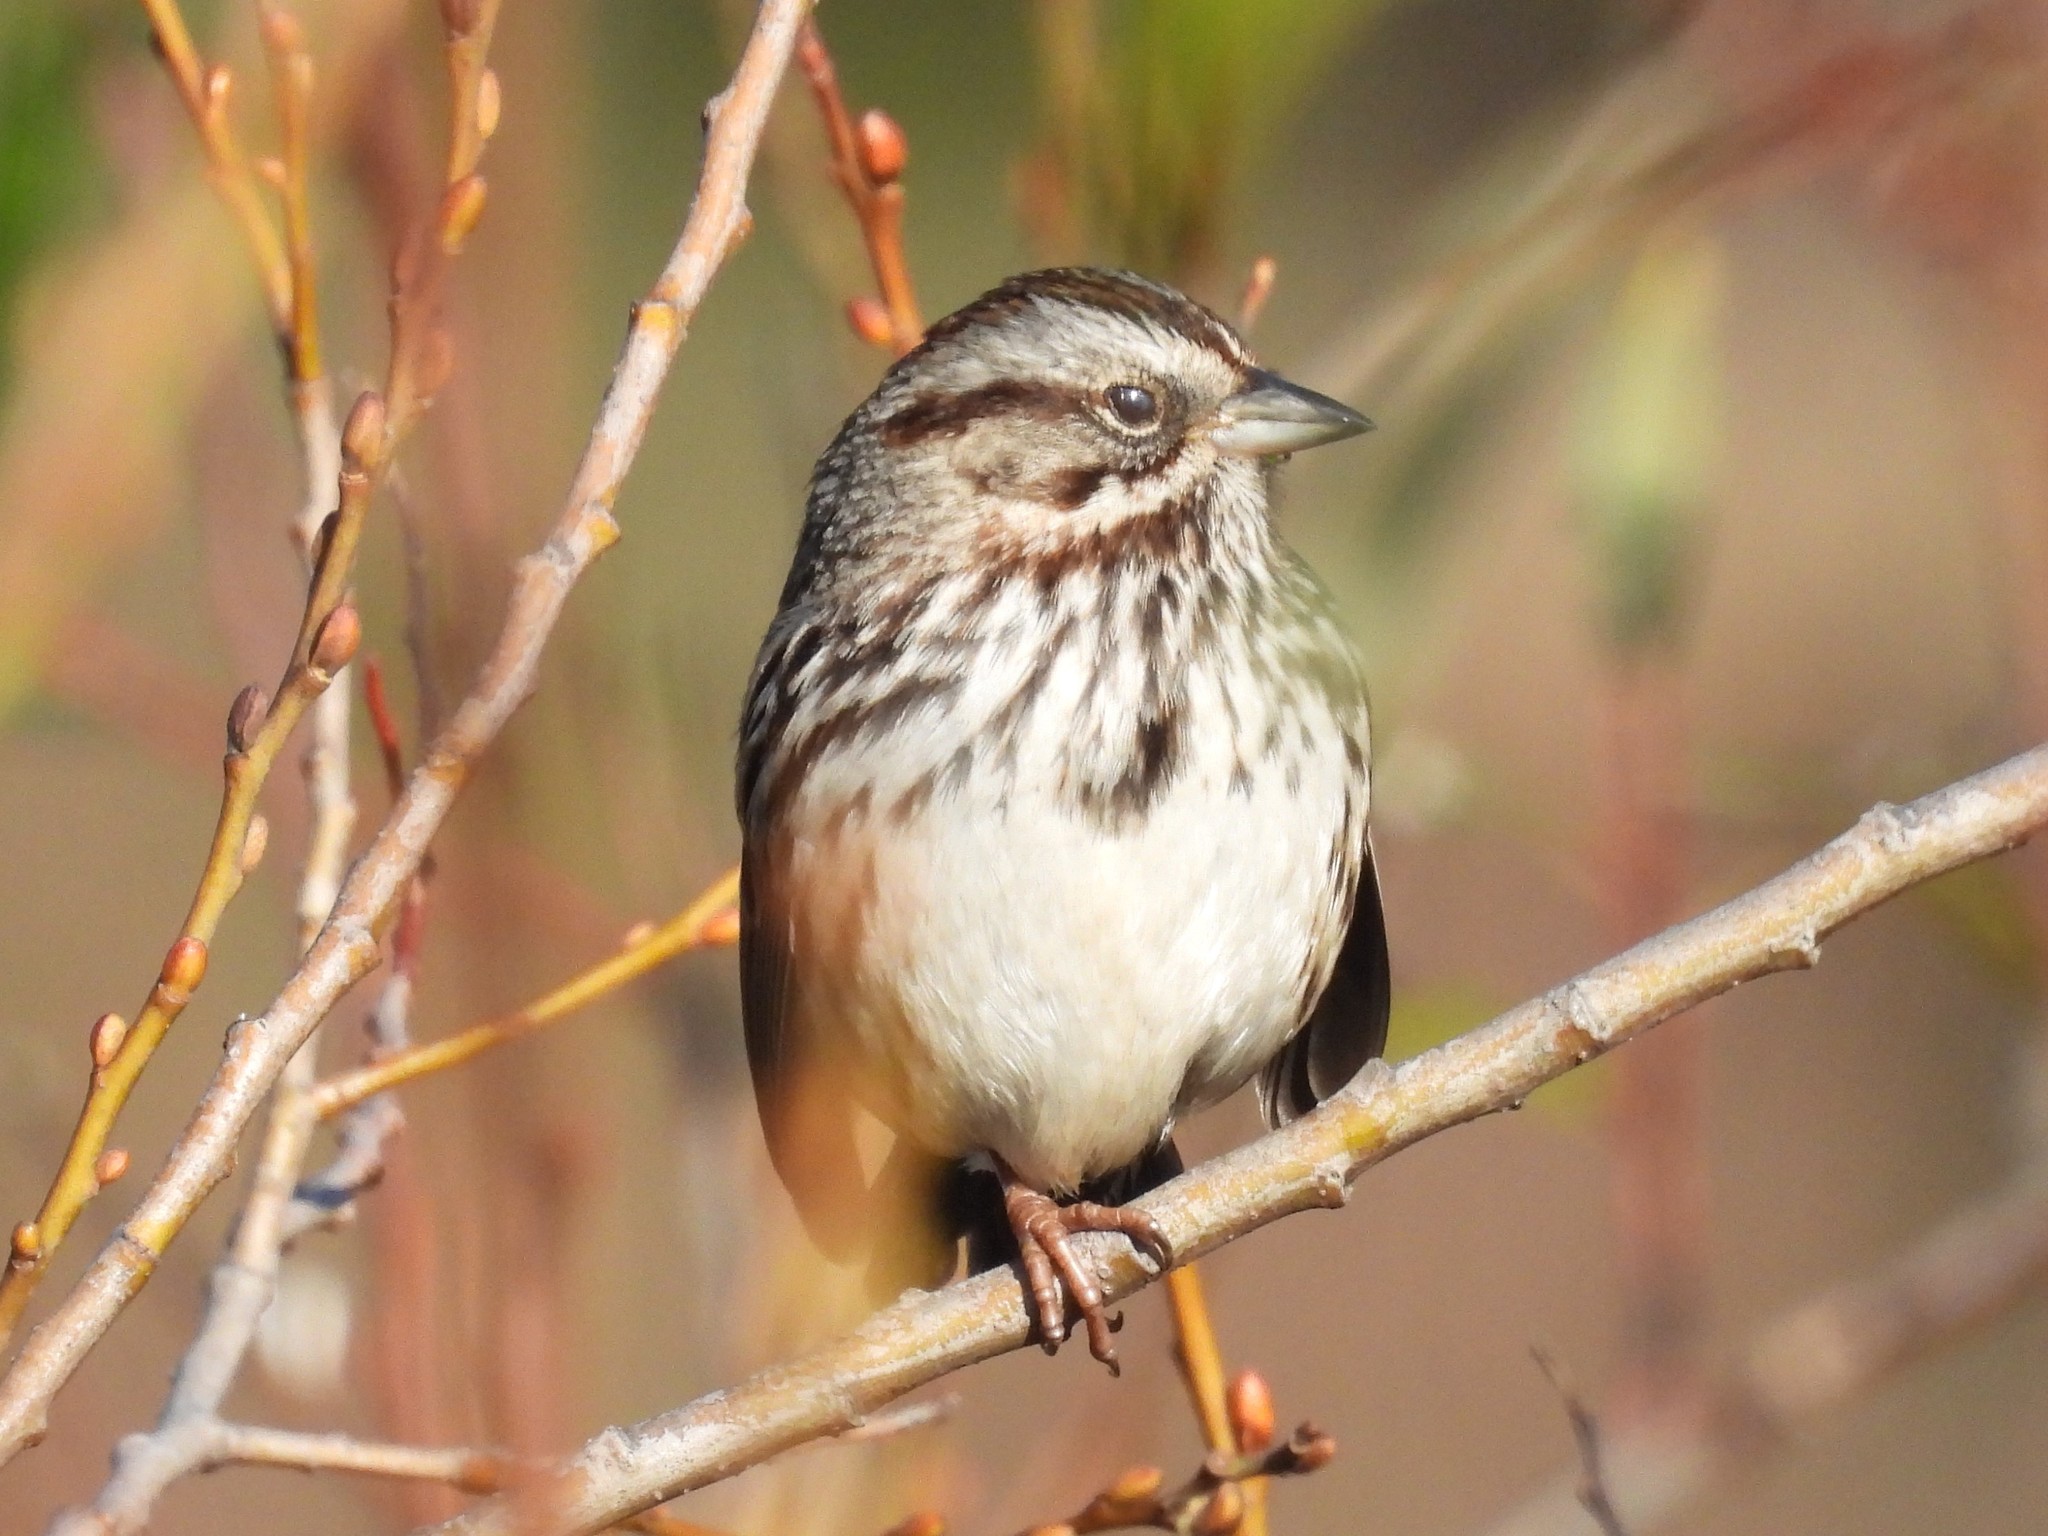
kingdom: Animalia
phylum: Chordata
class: Aves
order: Passeriformes
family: Passerellidae
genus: Melospiza
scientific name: Melospiza melodia
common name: Song sparrow
